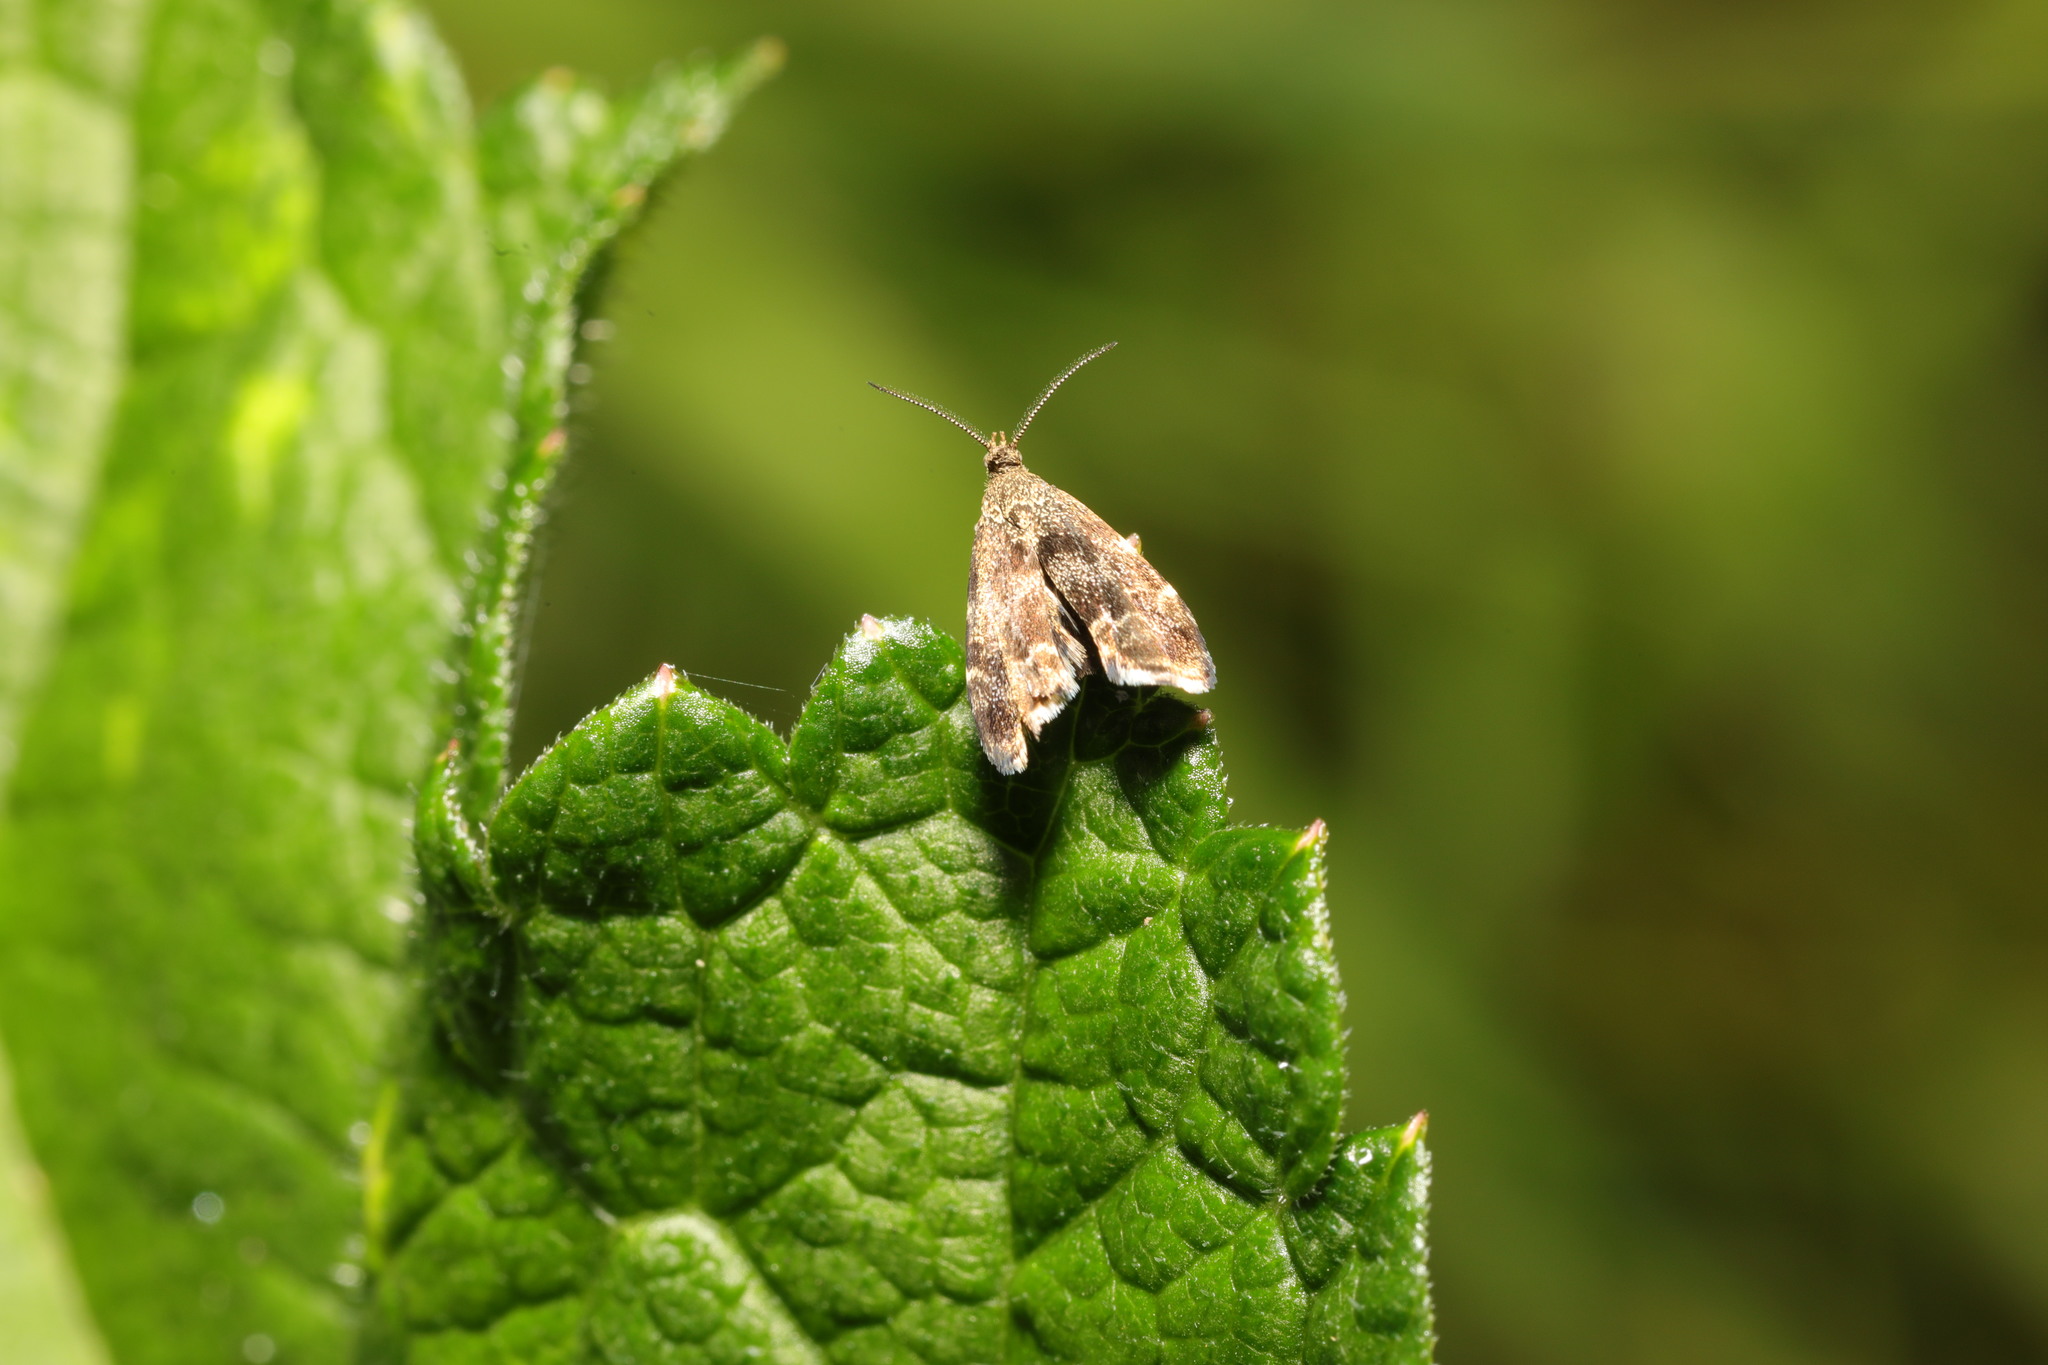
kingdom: Animalia
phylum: Arthropoda
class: Insecta
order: Lepidoptera
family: Choreutidae
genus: Anthophila
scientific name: Anthophila fabriciana
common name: Nettle-tap
